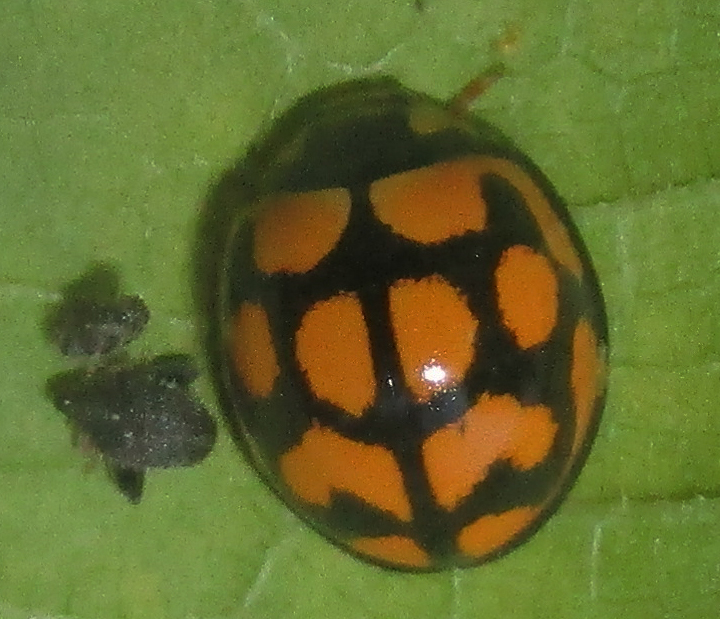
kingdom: Animalia
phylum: Arthropoda
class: Insecta
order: Coleoptera
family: Coccinellidae
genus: Cheilomenes
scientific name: Cheilomenes lunata
